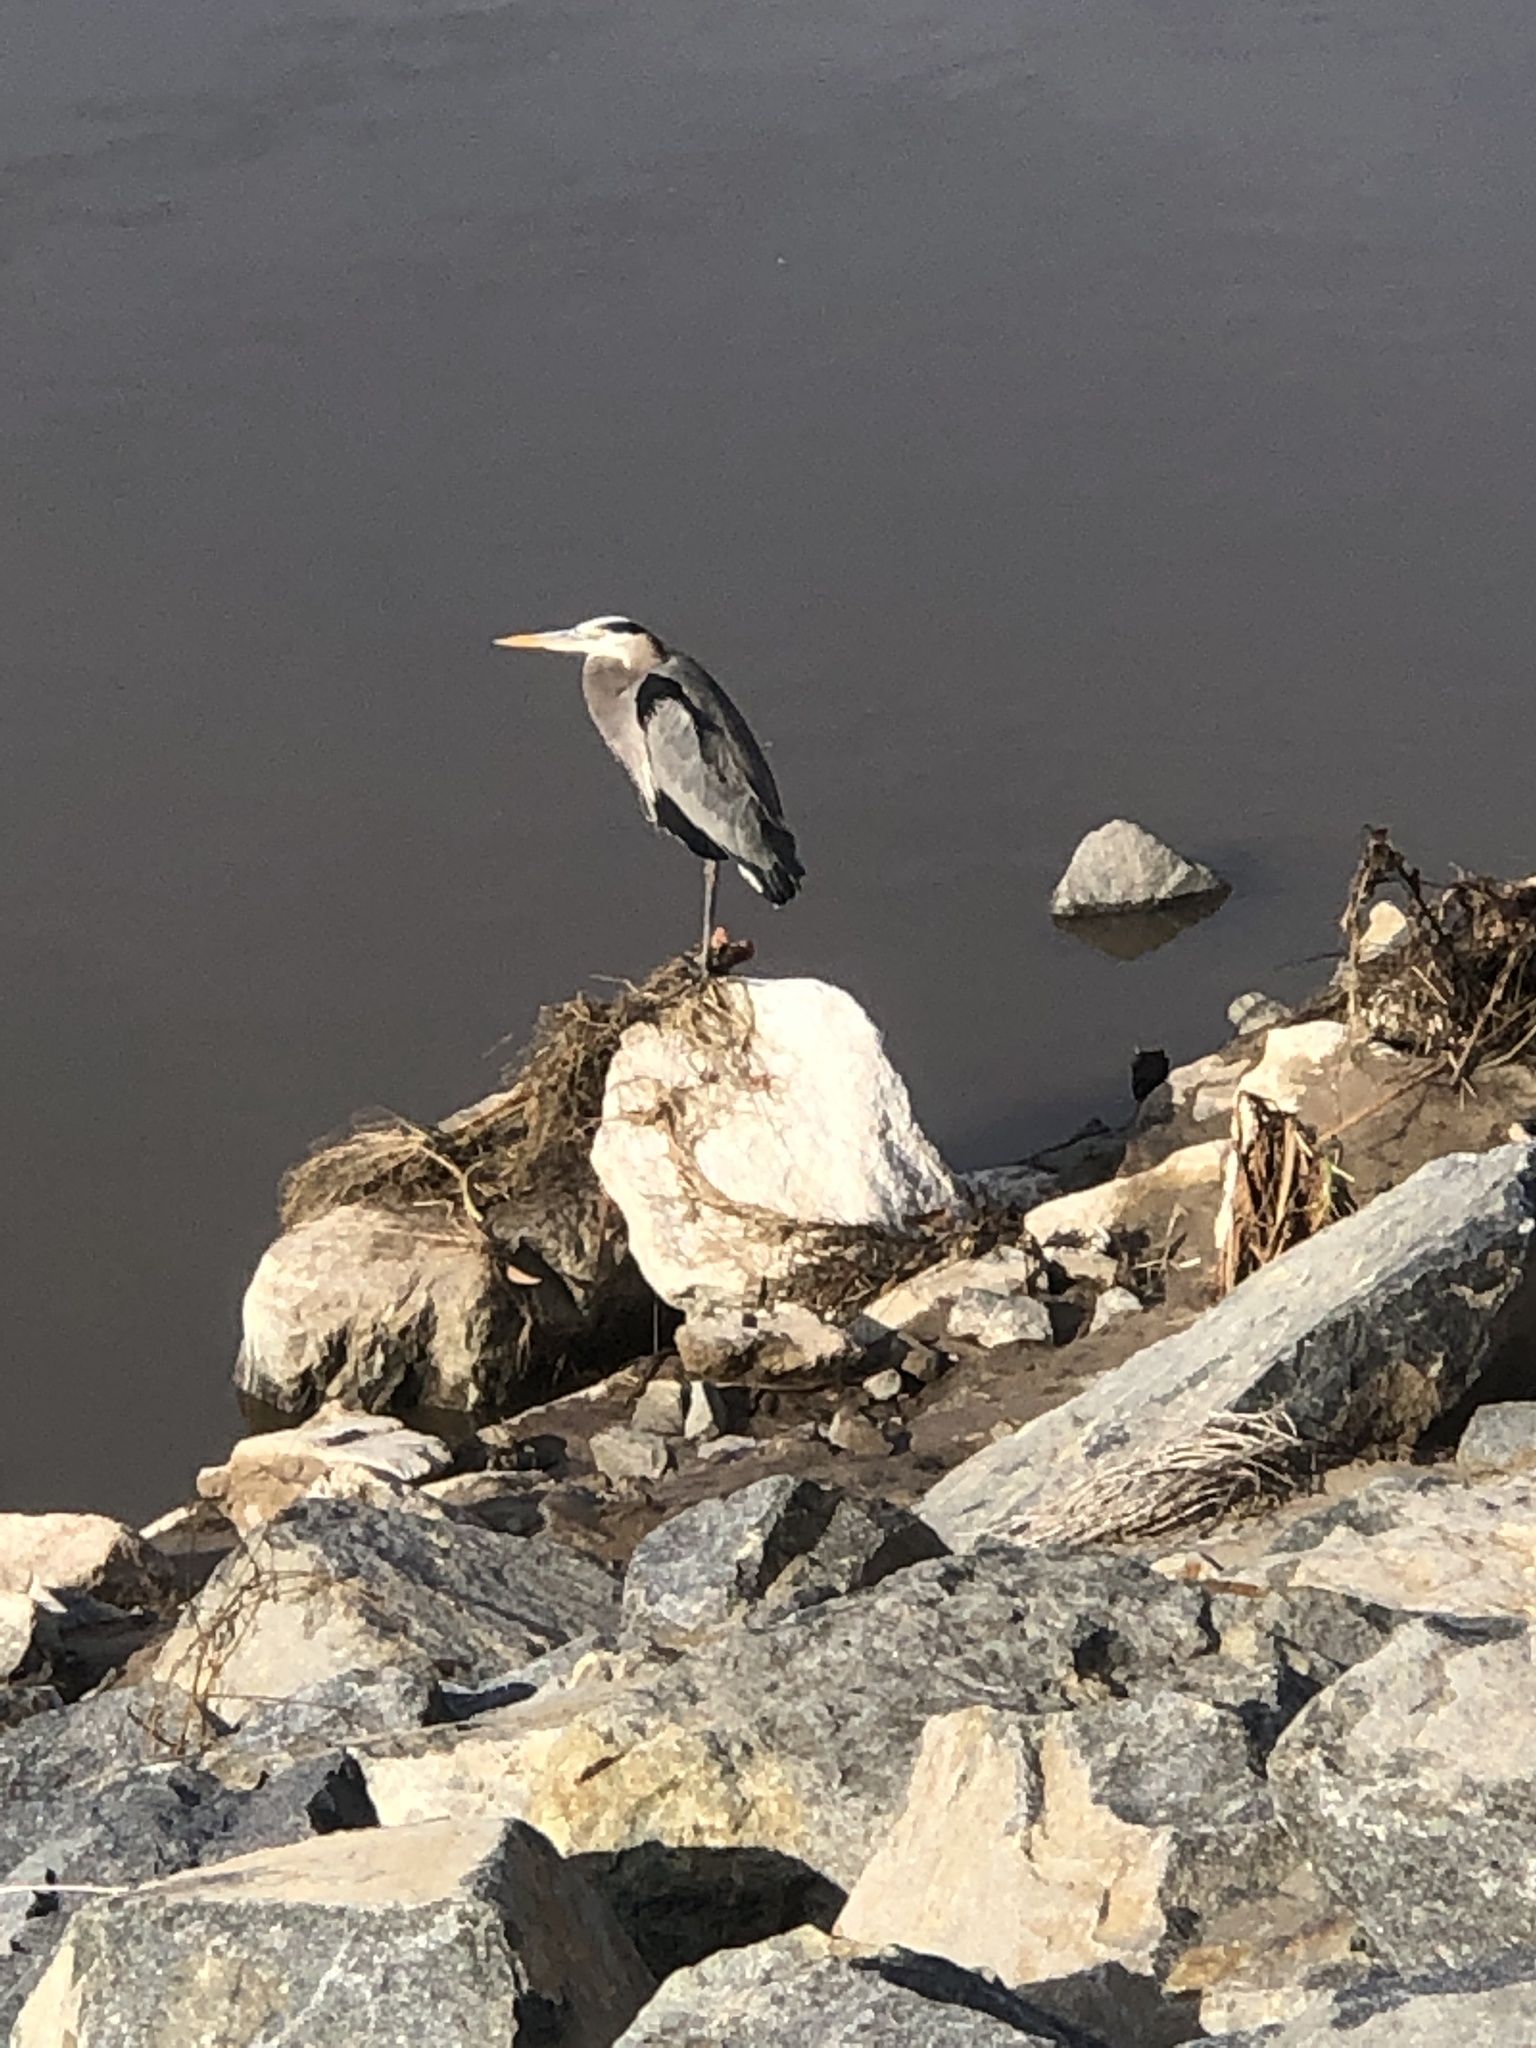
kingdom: Animalia
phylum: Chordata
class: Aves
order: Pelecaniformes
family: Ardeidae
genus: Ardea
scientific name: Ardea herodias
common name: Great blue heron
